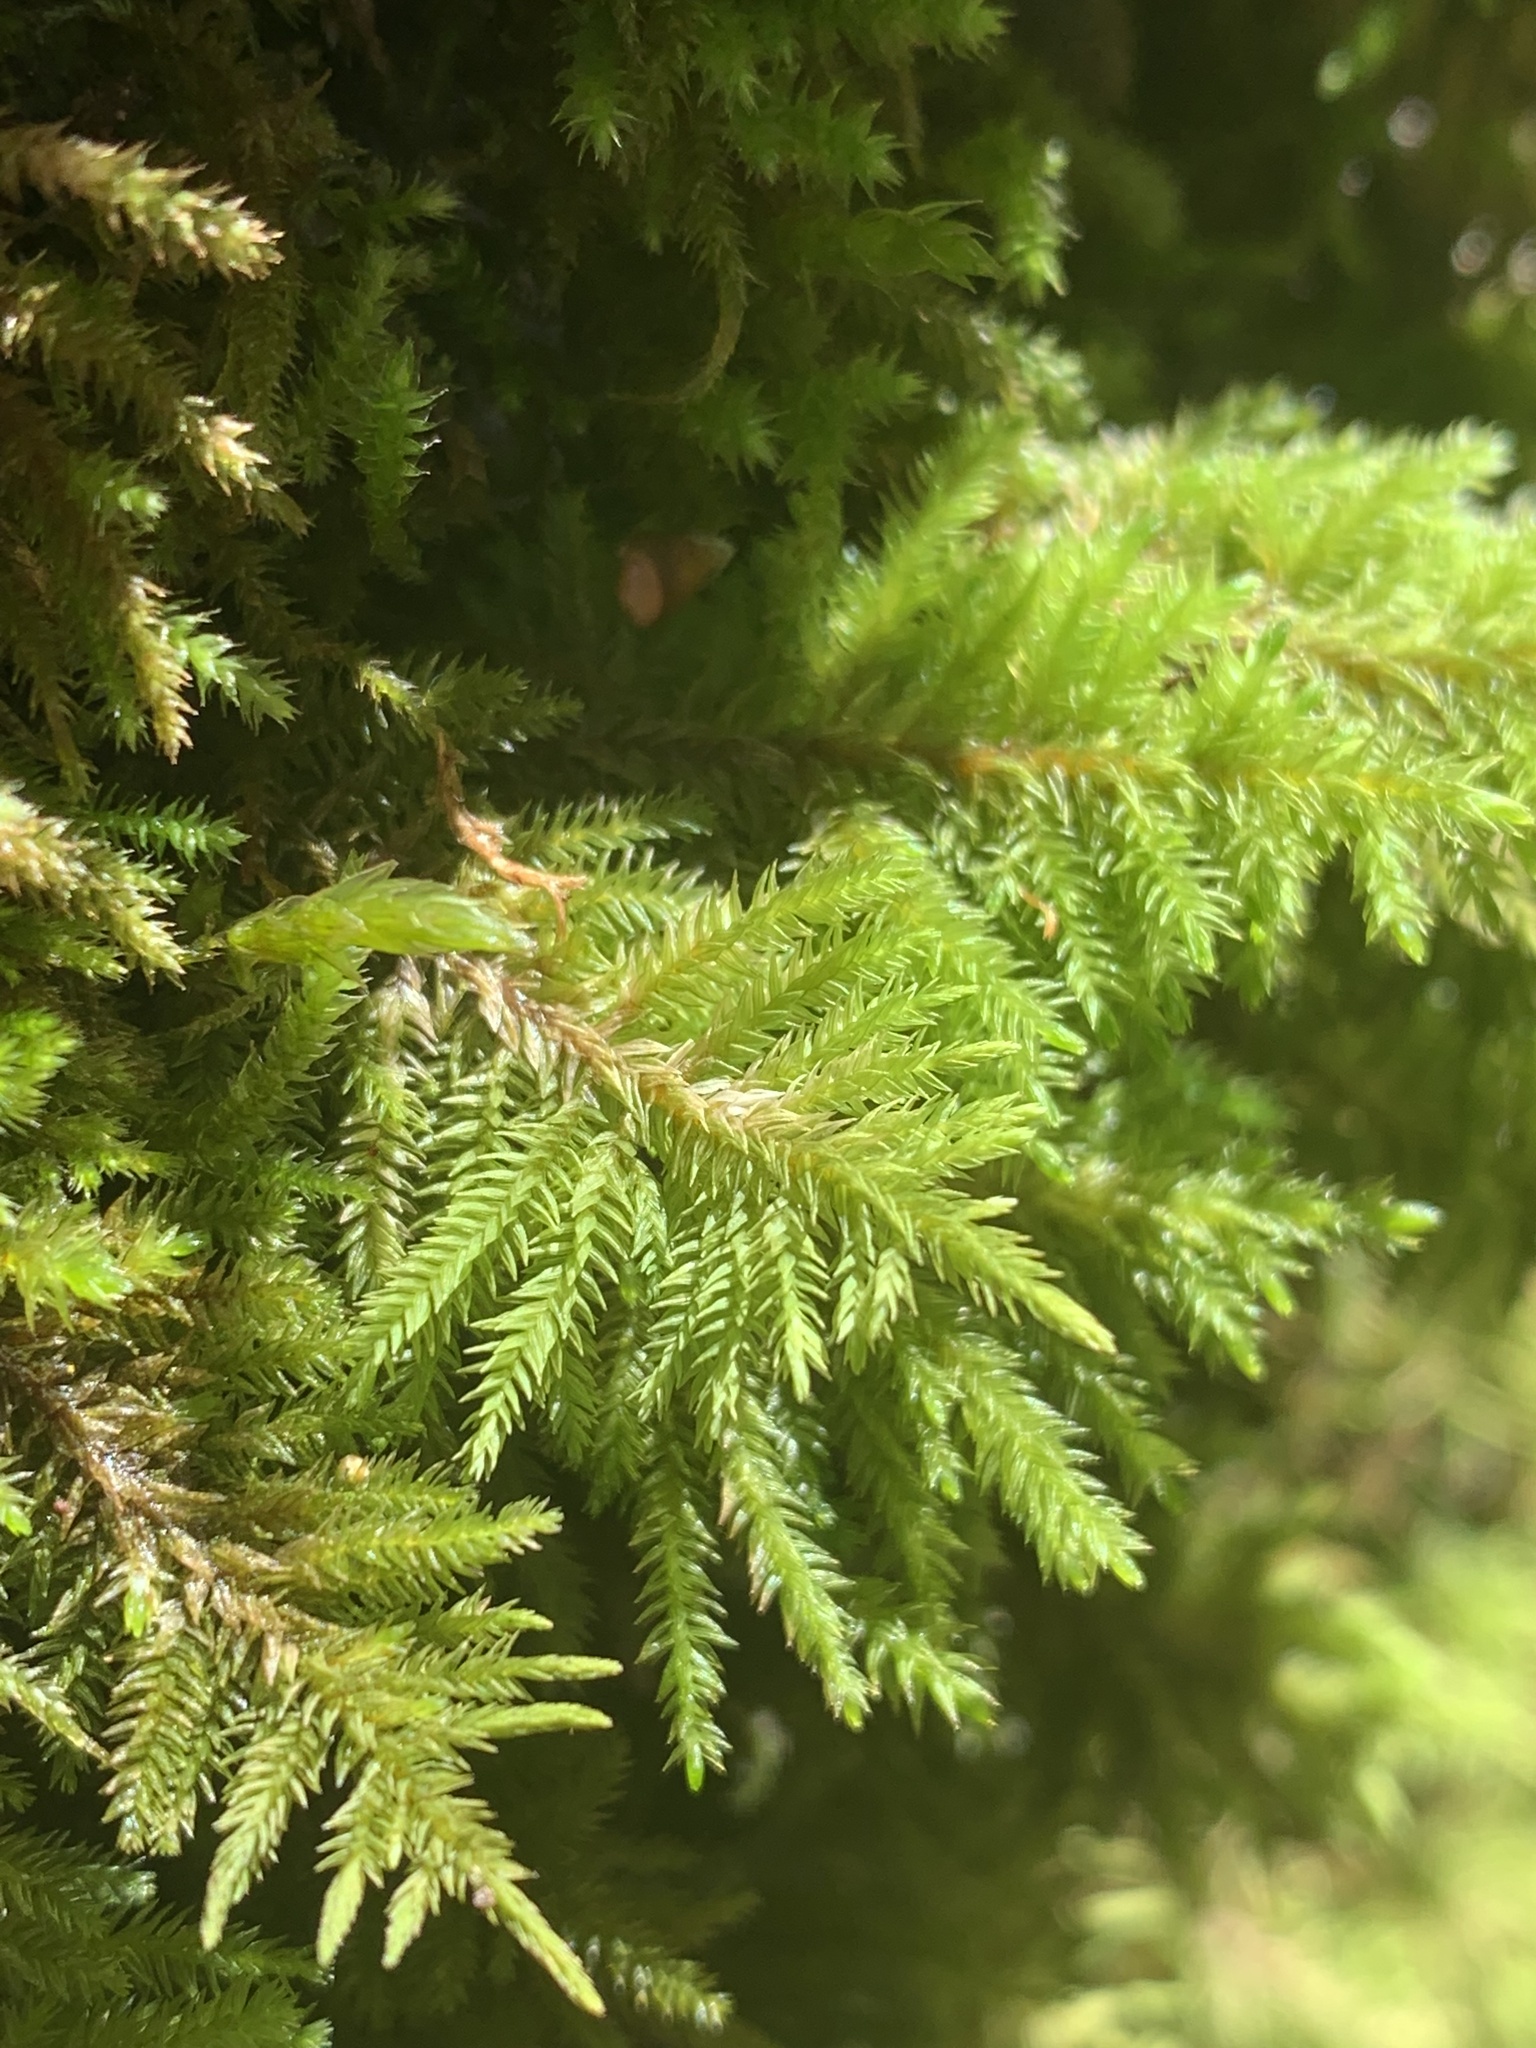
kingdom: Plantae
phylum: Bryophyta
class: Bryopsida
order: Hypnales
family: Cryphaeaceae
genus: Dendroalsia
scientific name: Dendroalsia abietina
